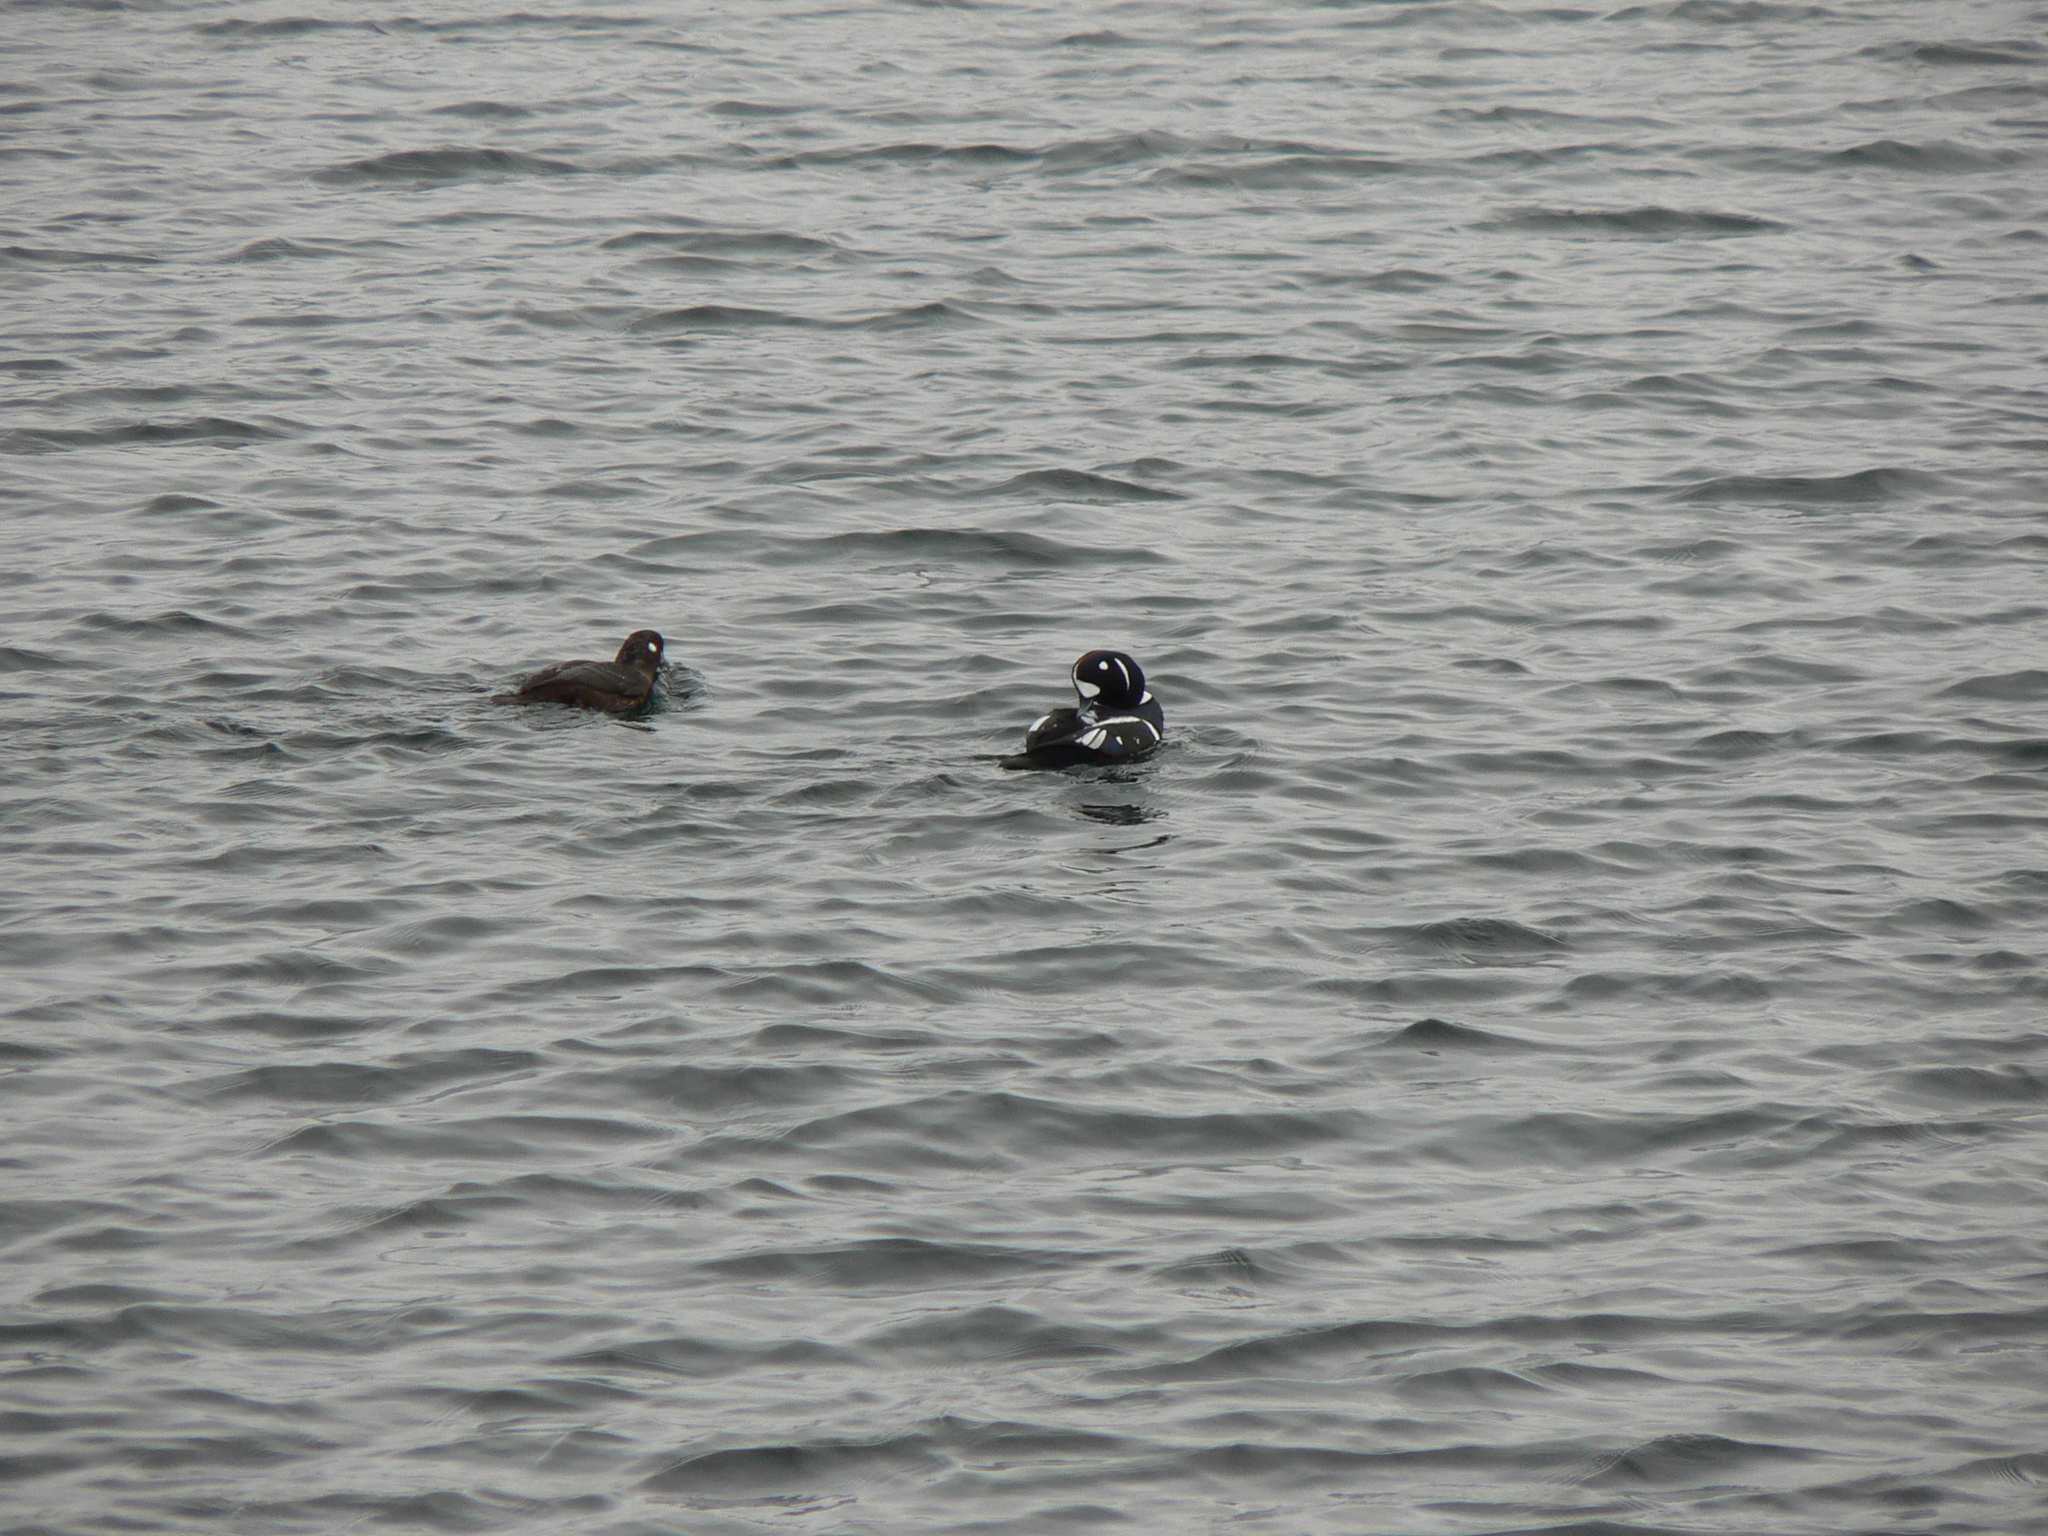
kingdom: Animalia
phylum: Chordata
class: Aves
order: Anseriformes
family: Anatidae
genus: Histrionicus
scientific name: Histrionicus histrionicus
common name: Harlequin duck
